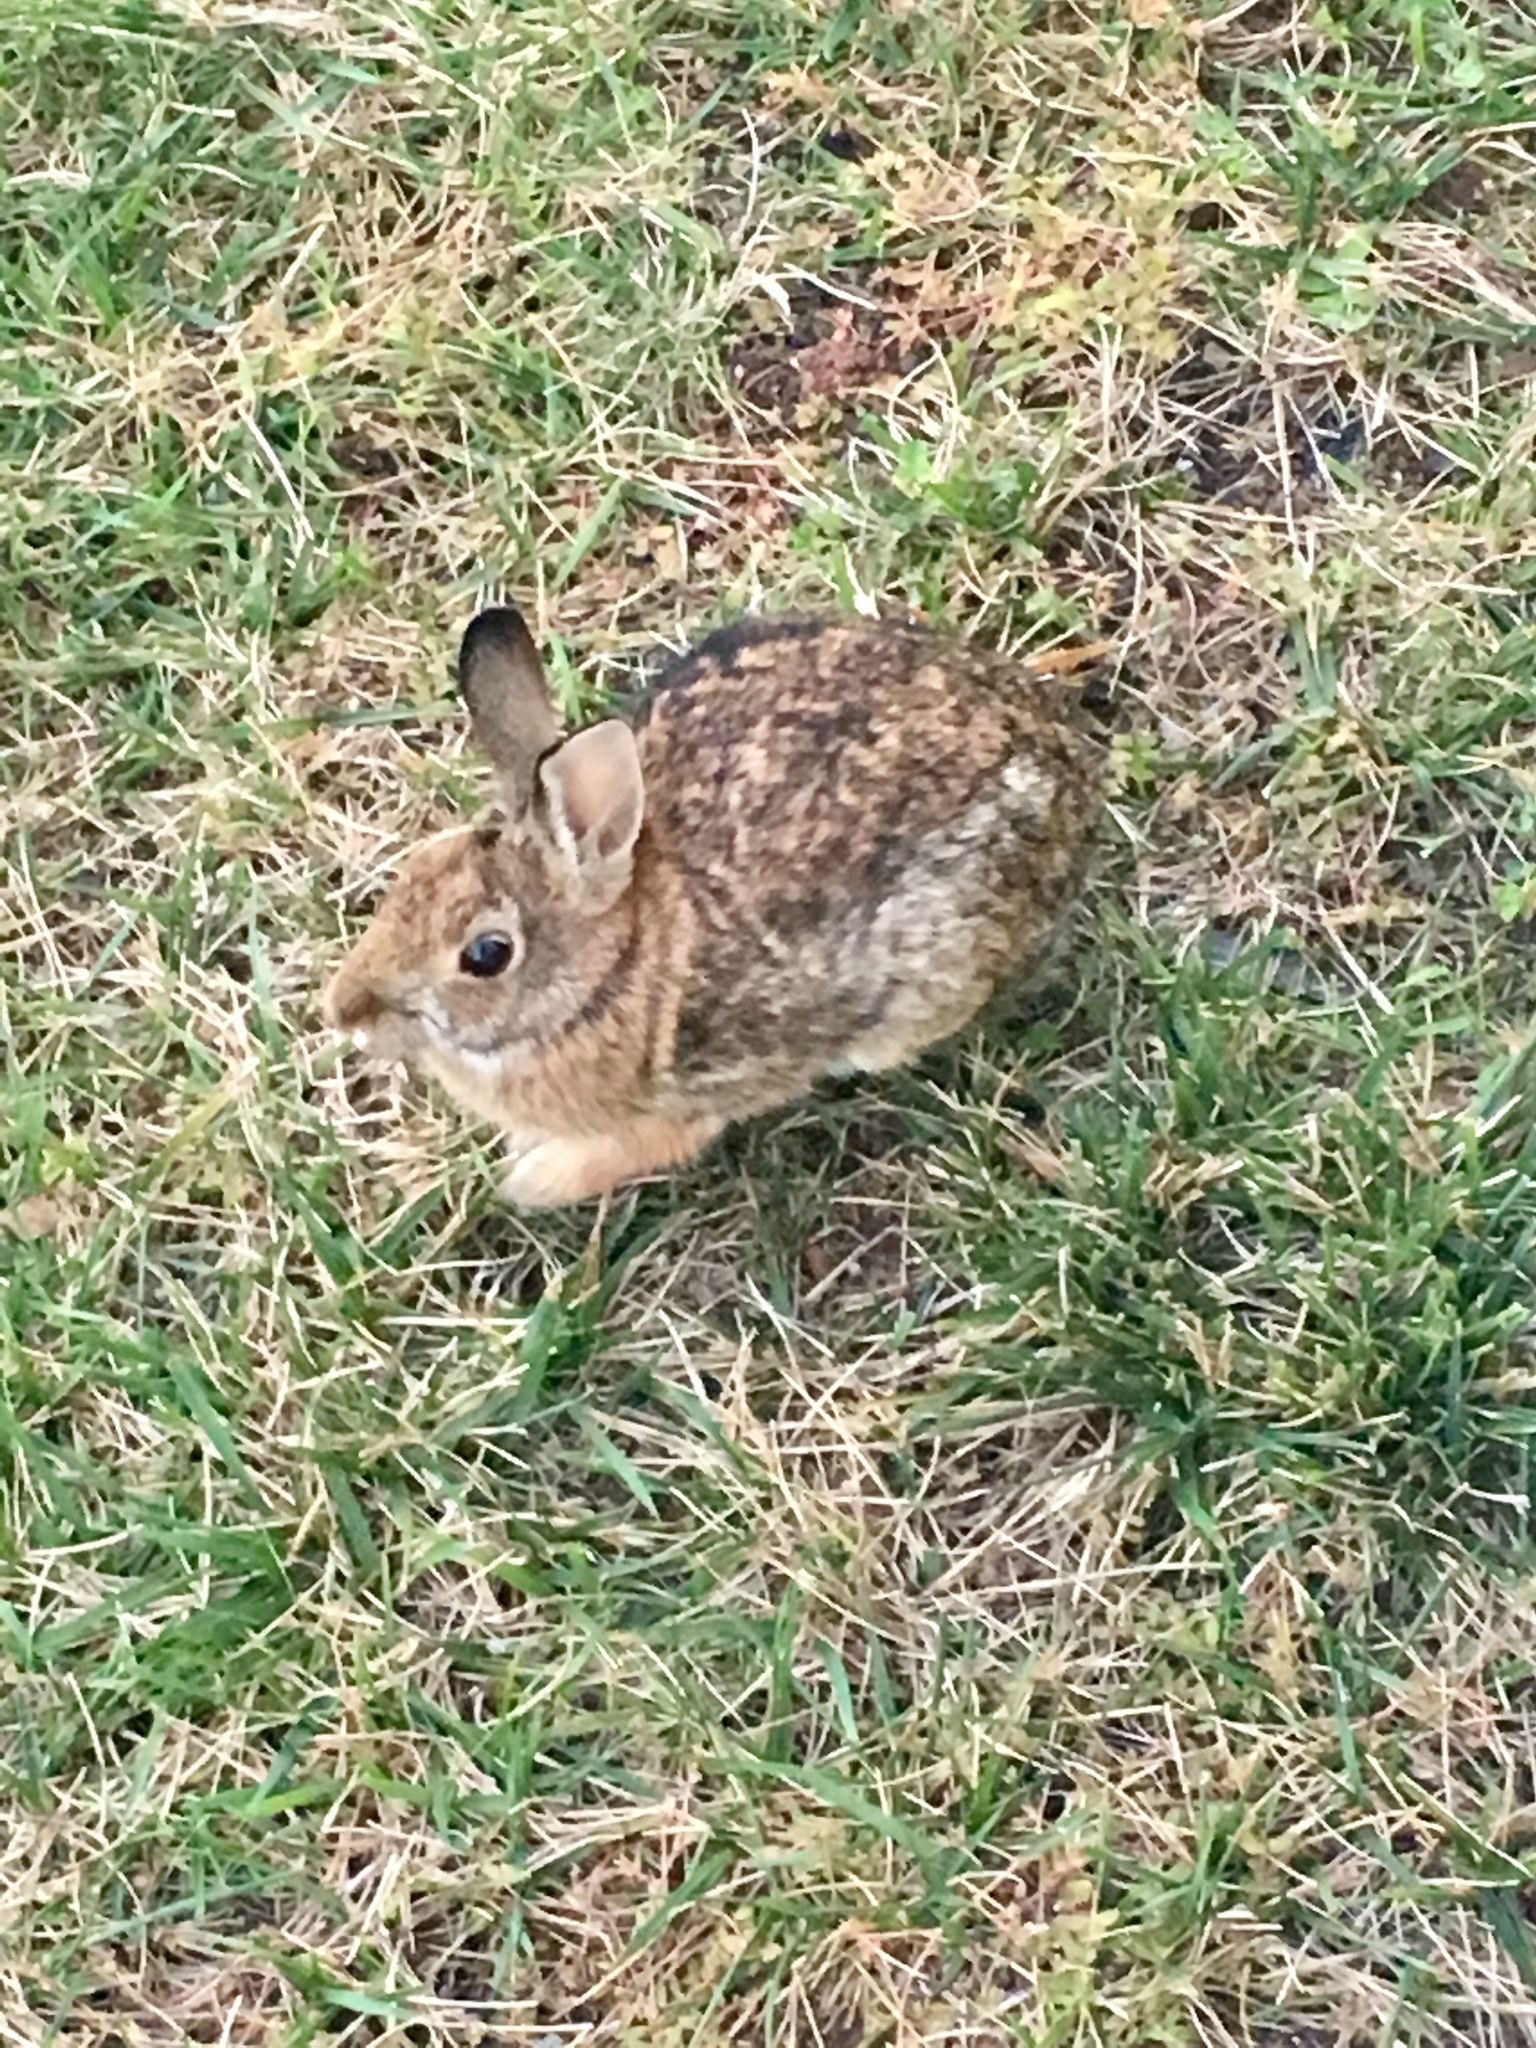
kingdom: Animalia
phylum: Chordata
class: Mammalia
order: Lagomorpha
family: Leporidae
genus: Sylvilagus
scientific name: Sylvilagus floridanus
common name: Eastern cottontail
